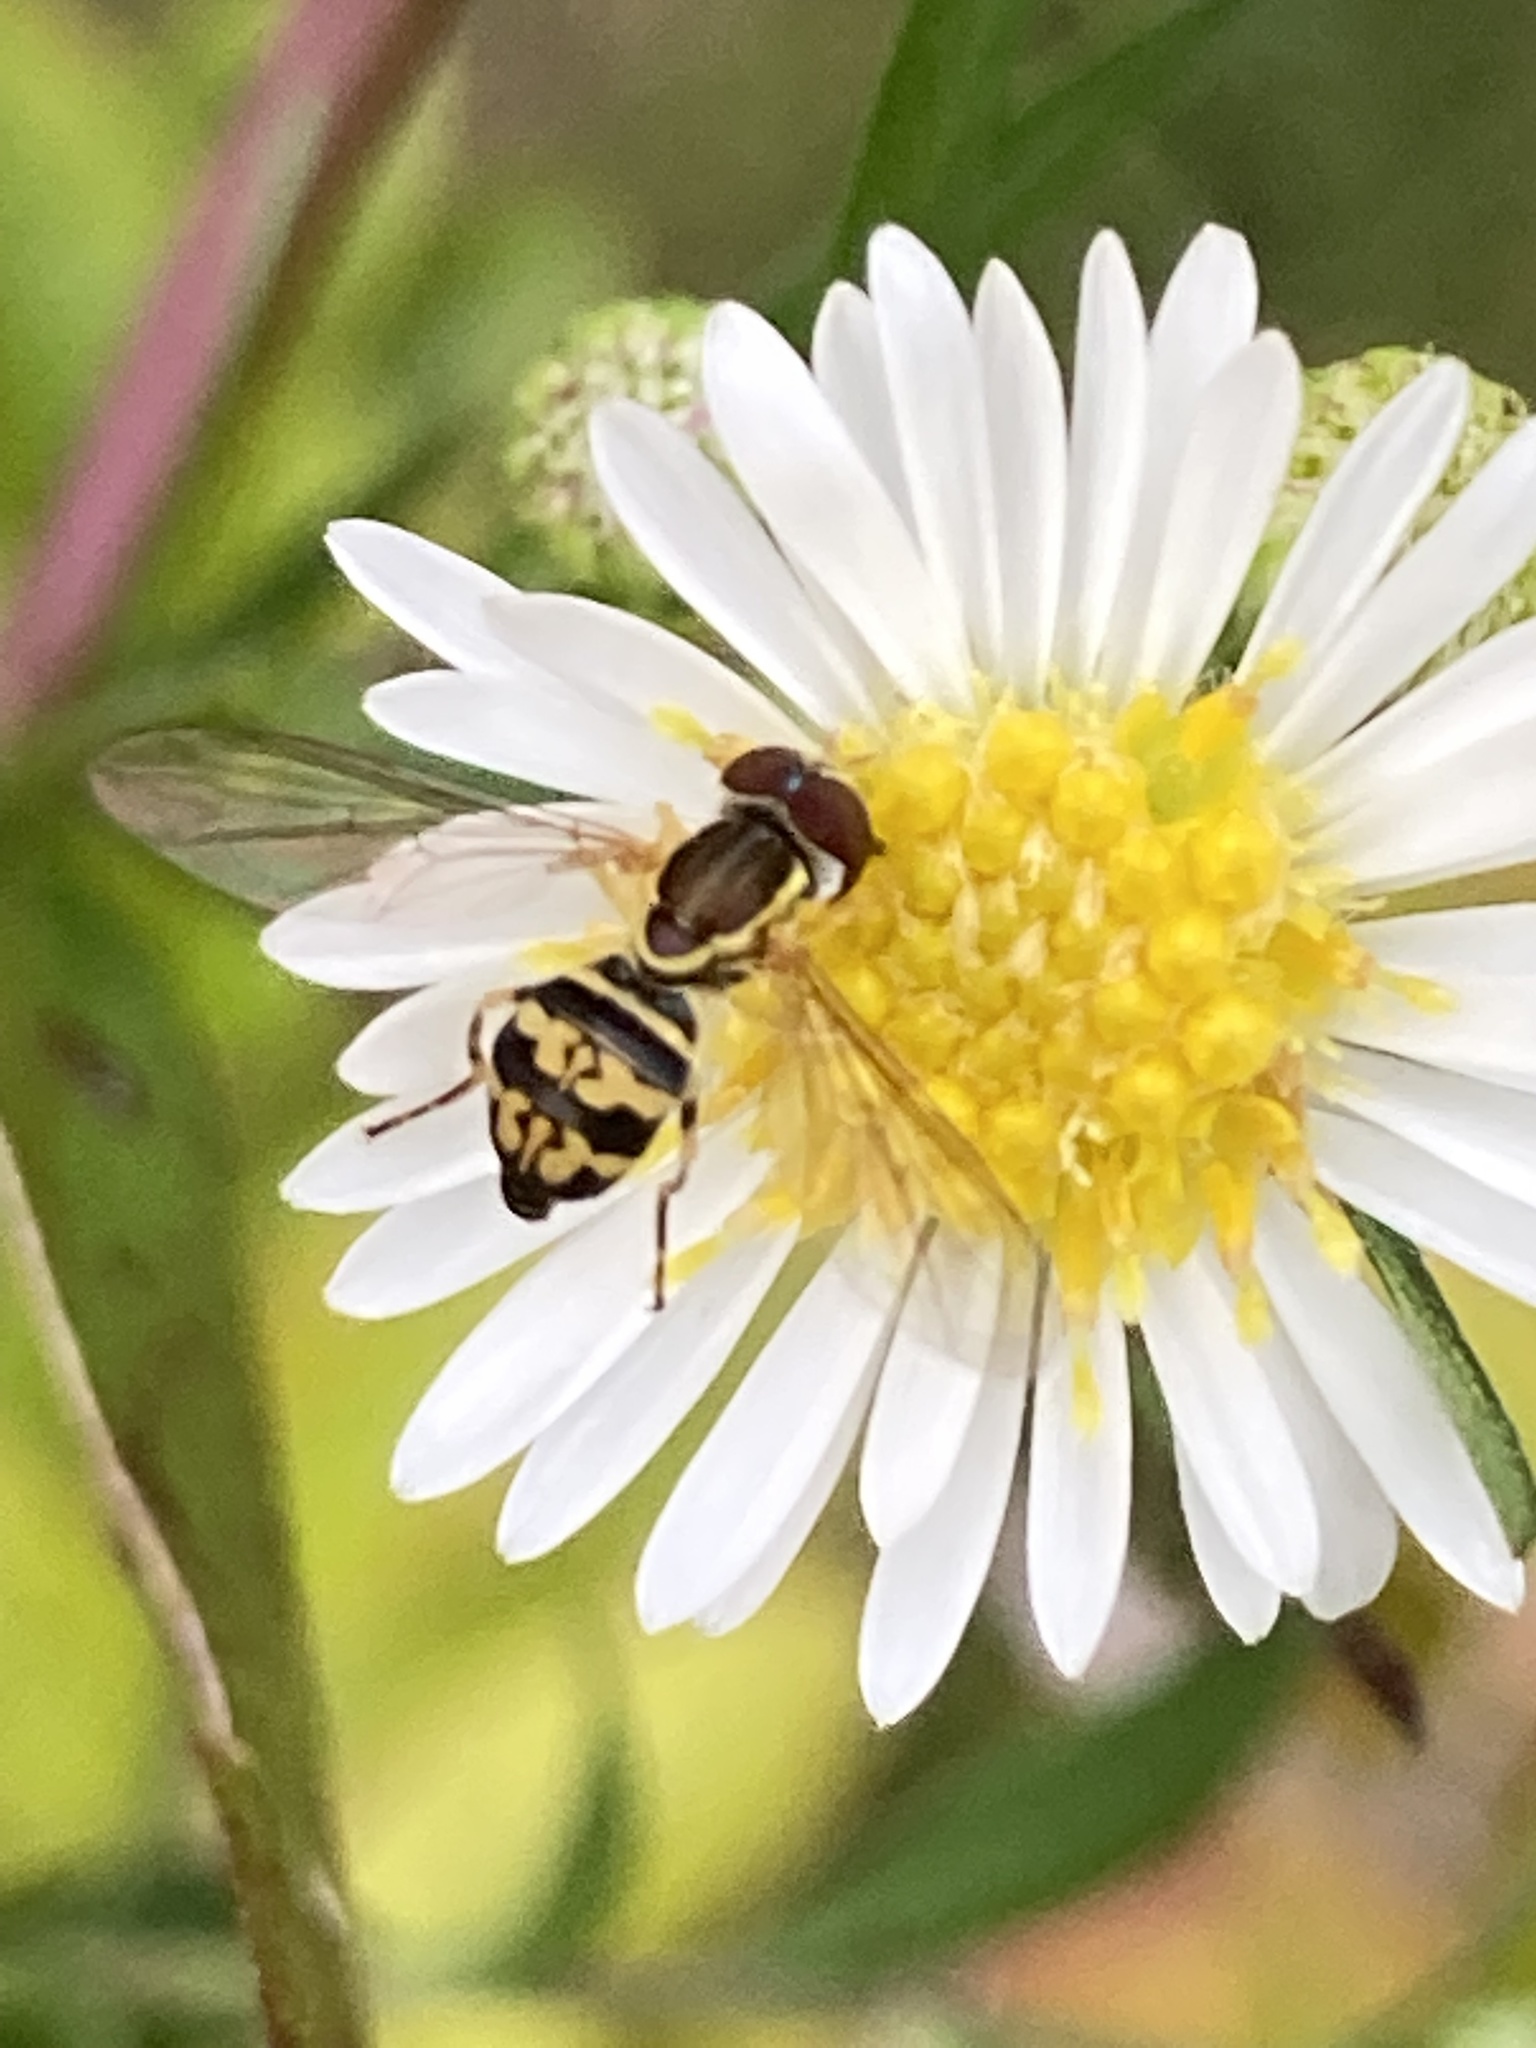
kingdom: Animalia
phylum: Arthropoda
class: Insecta
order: Diptera
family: Syrphidae
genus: Toxomerus
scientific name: Toxomerus geminatus
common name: Eastern calligrapher
